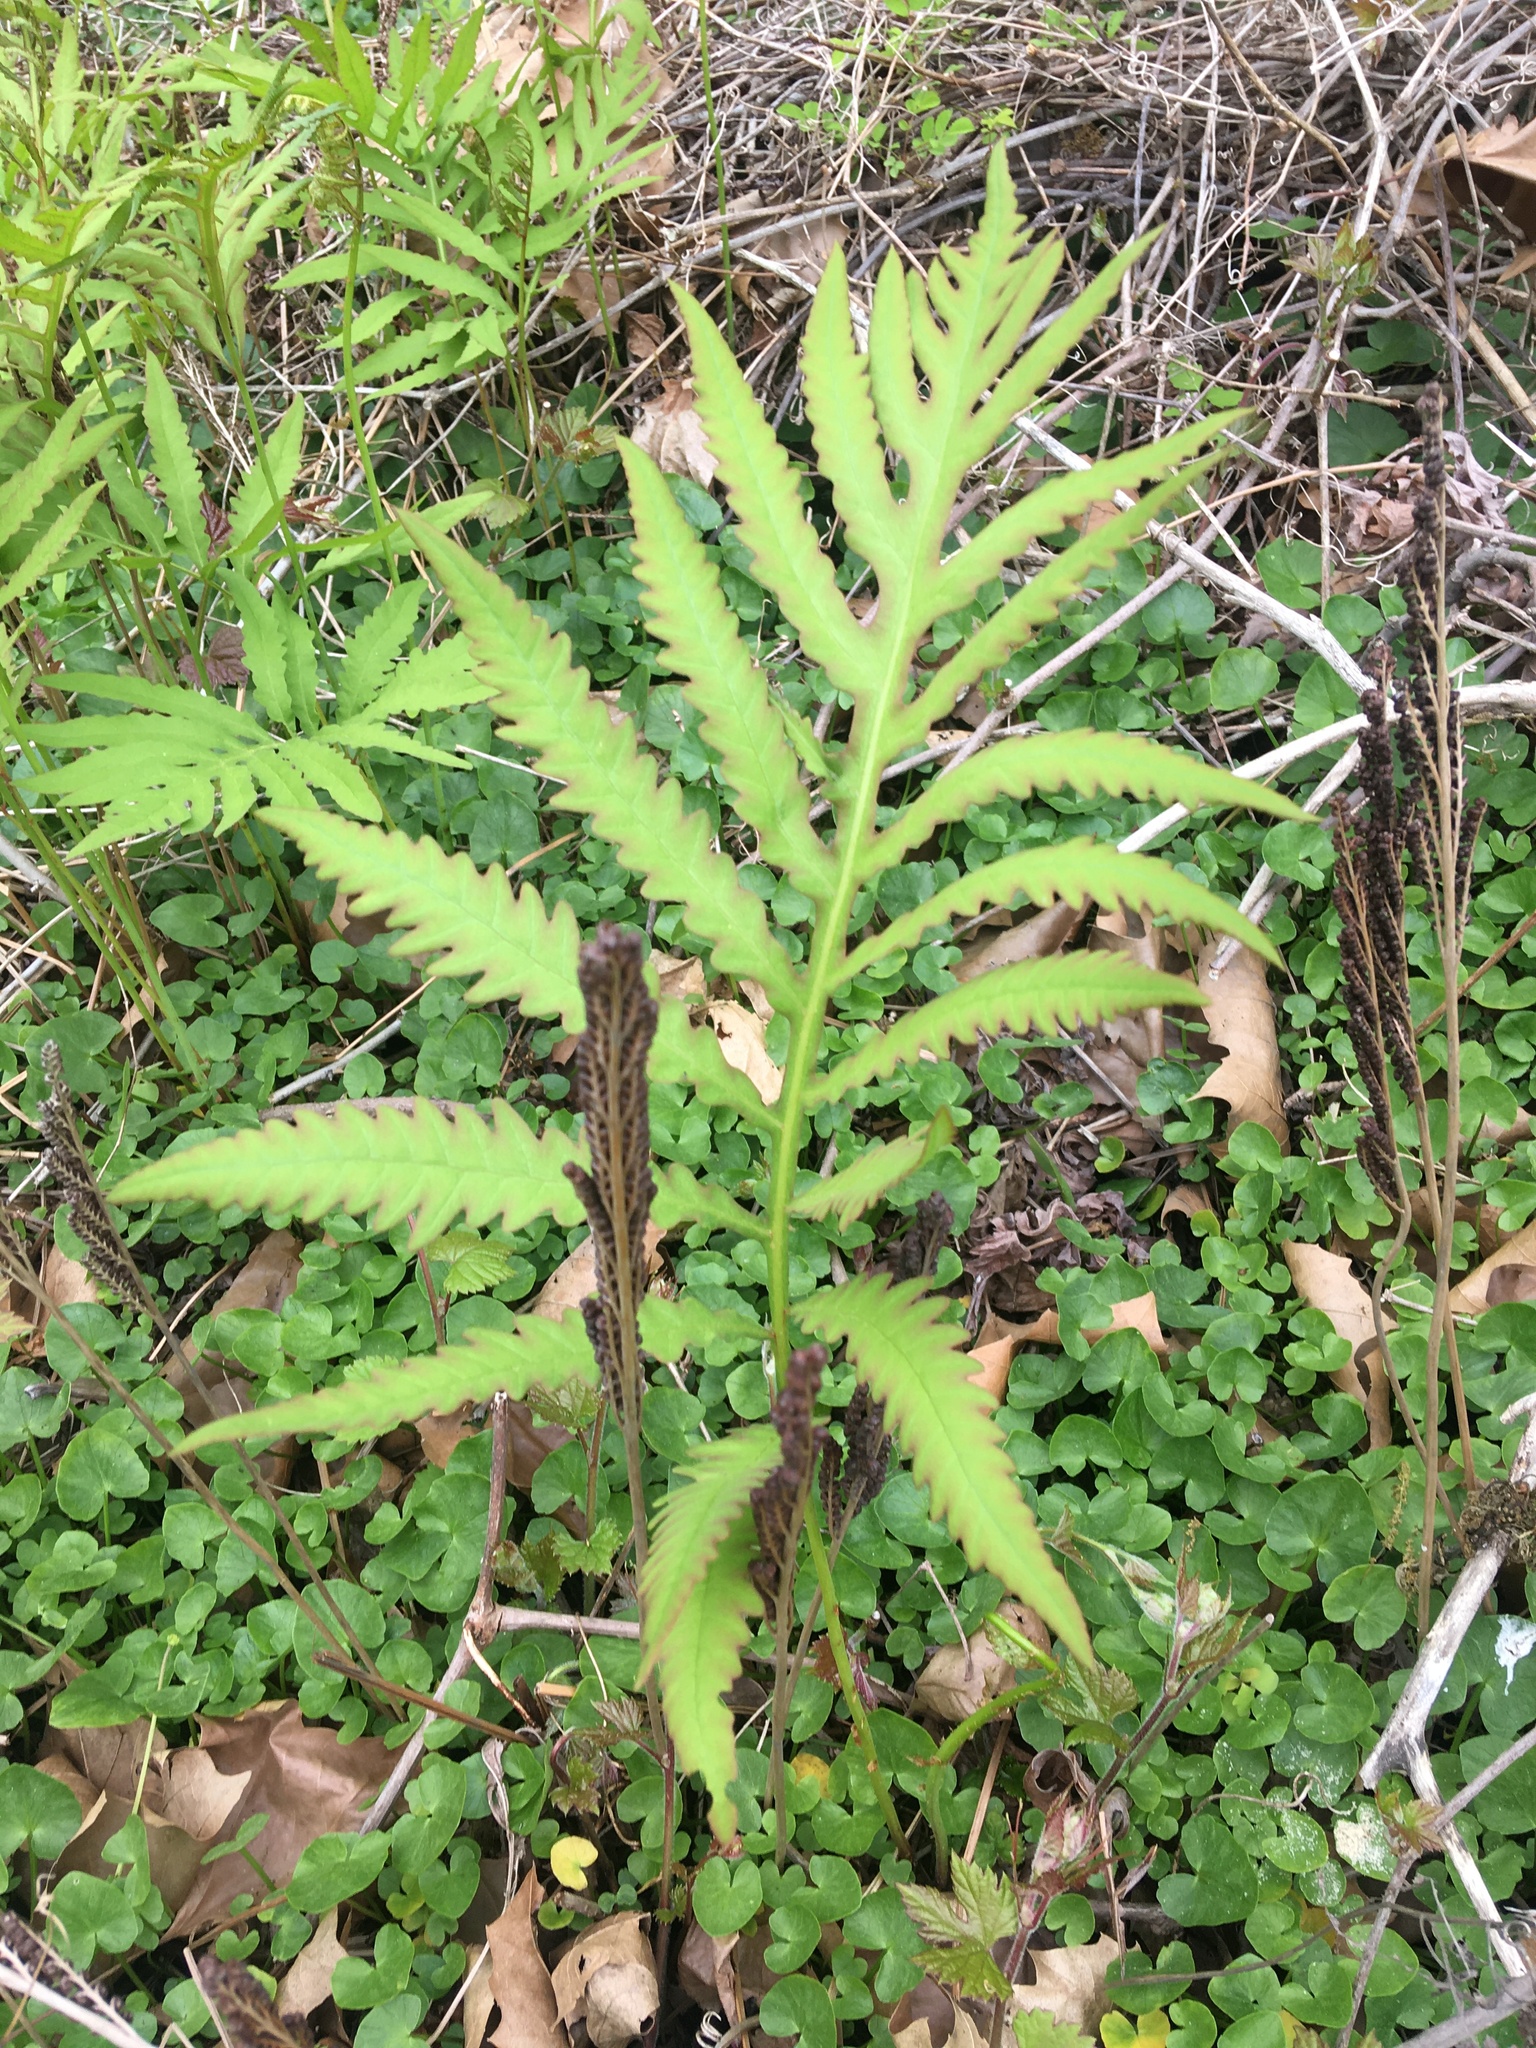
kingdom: Plantae
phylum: Tracheophyta
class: Polypodiopsida
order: Polypodiales
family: Onocleaceae
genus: Onoclea
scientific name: Onoclea sensibilis
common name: Sensitive fern
